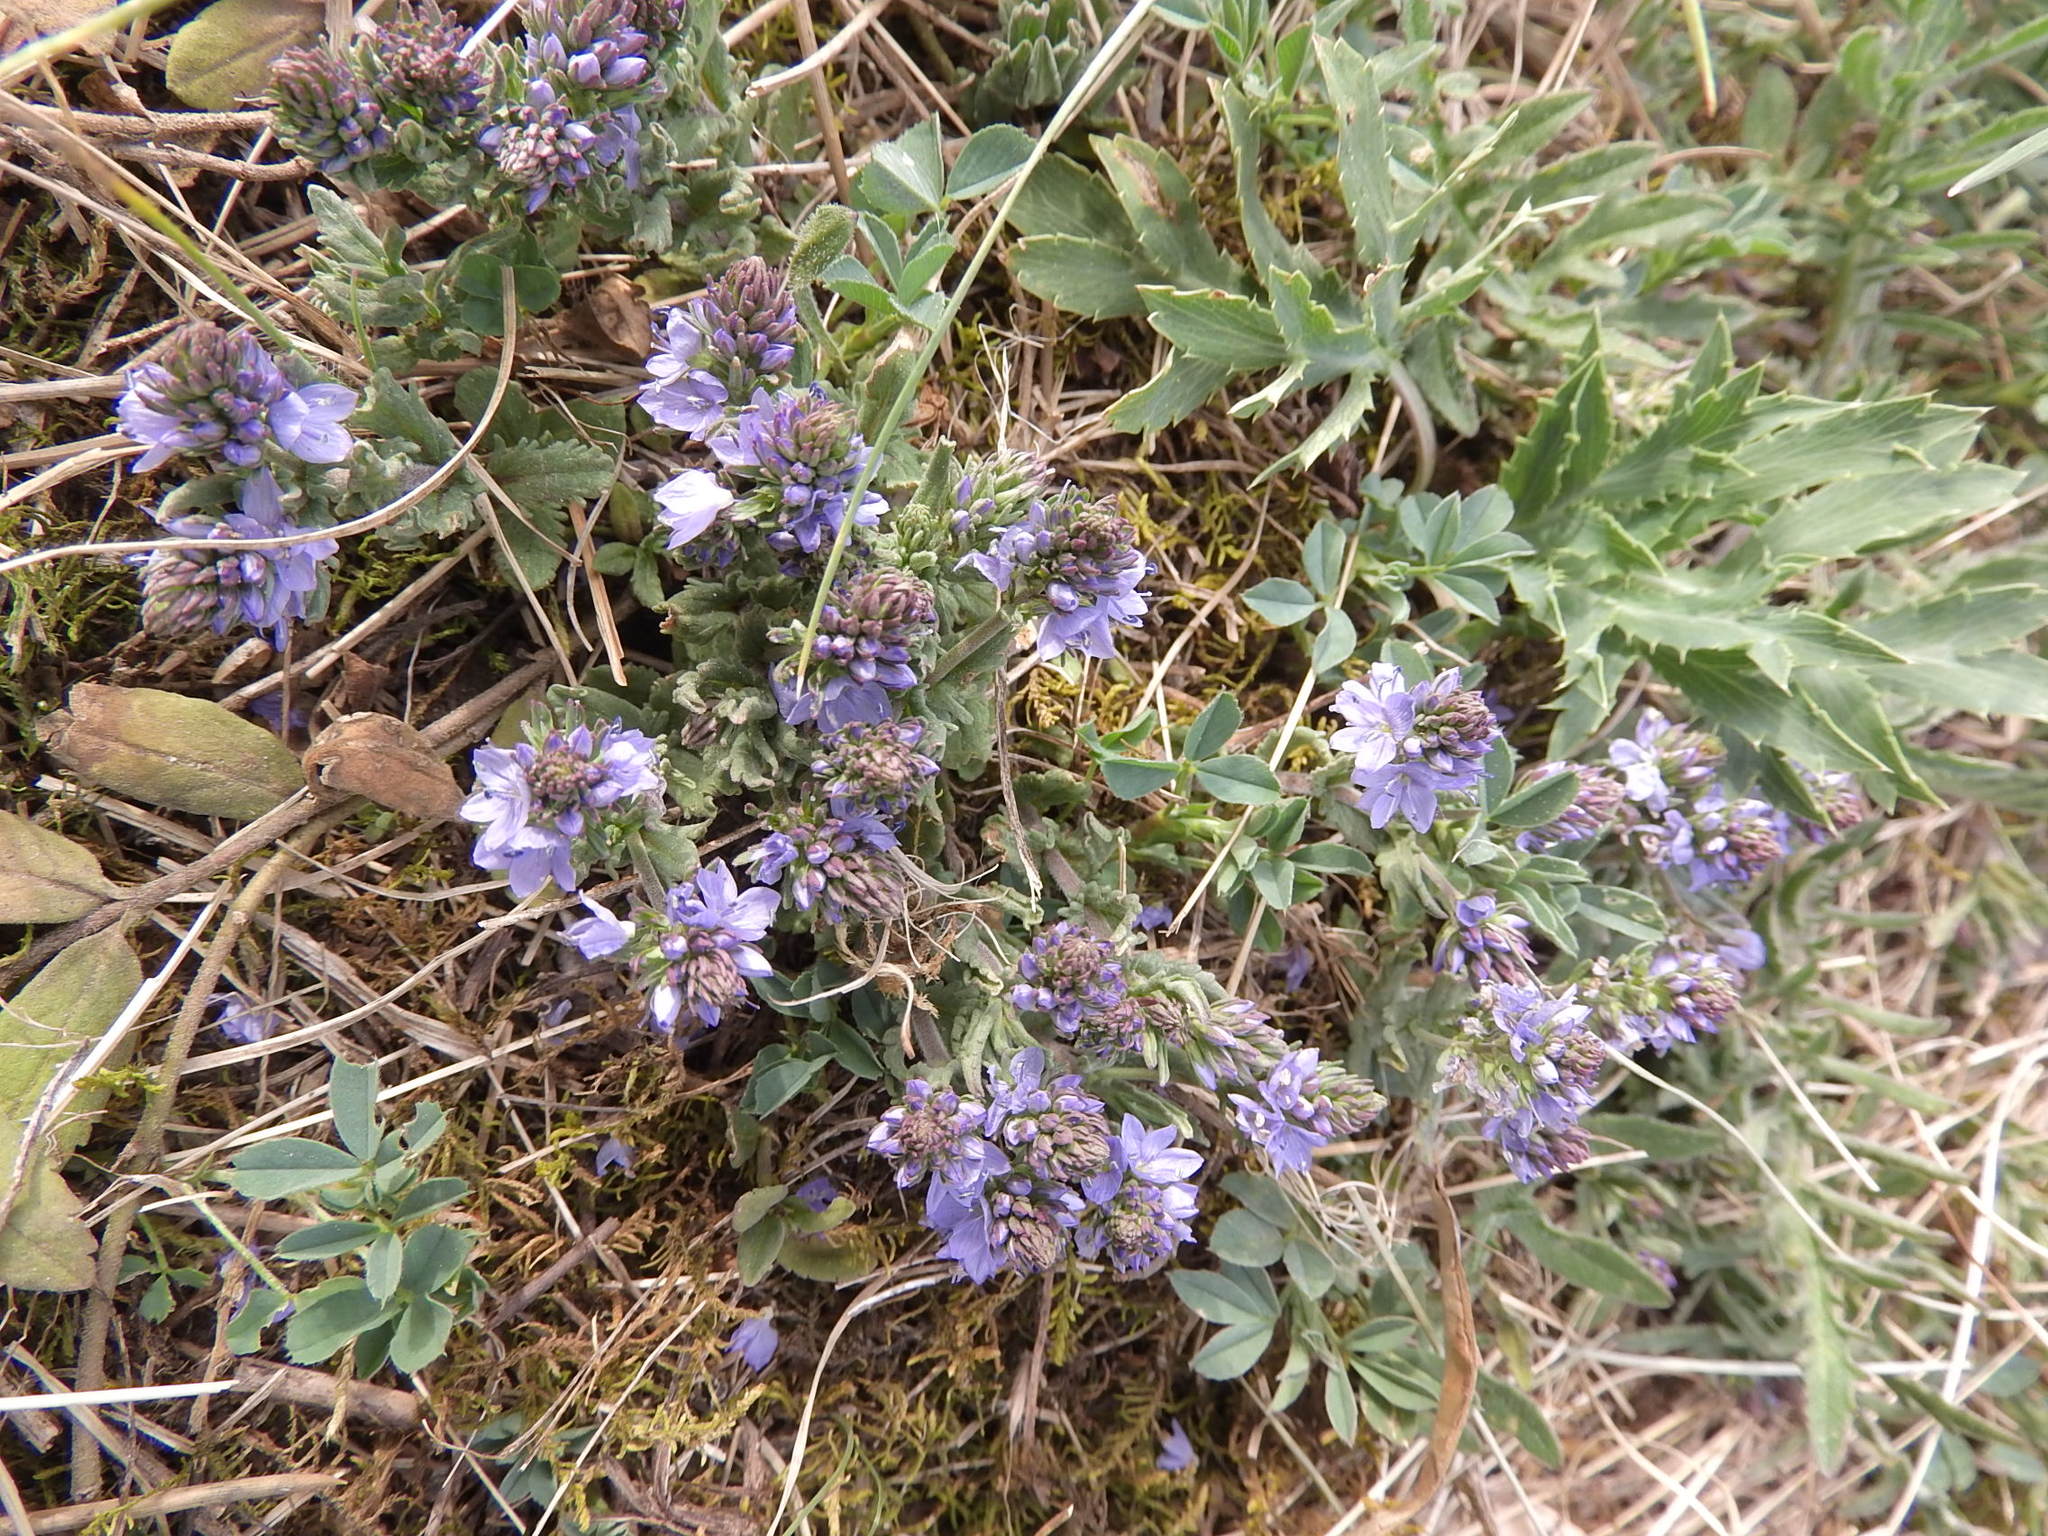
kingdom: Plantae
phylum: Tracheophyta
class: Magnoliopsida
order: Lamiales
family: Plantaginaceae
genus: Veronica
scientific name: Veronica prostrata
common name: Prostrate speedwell
